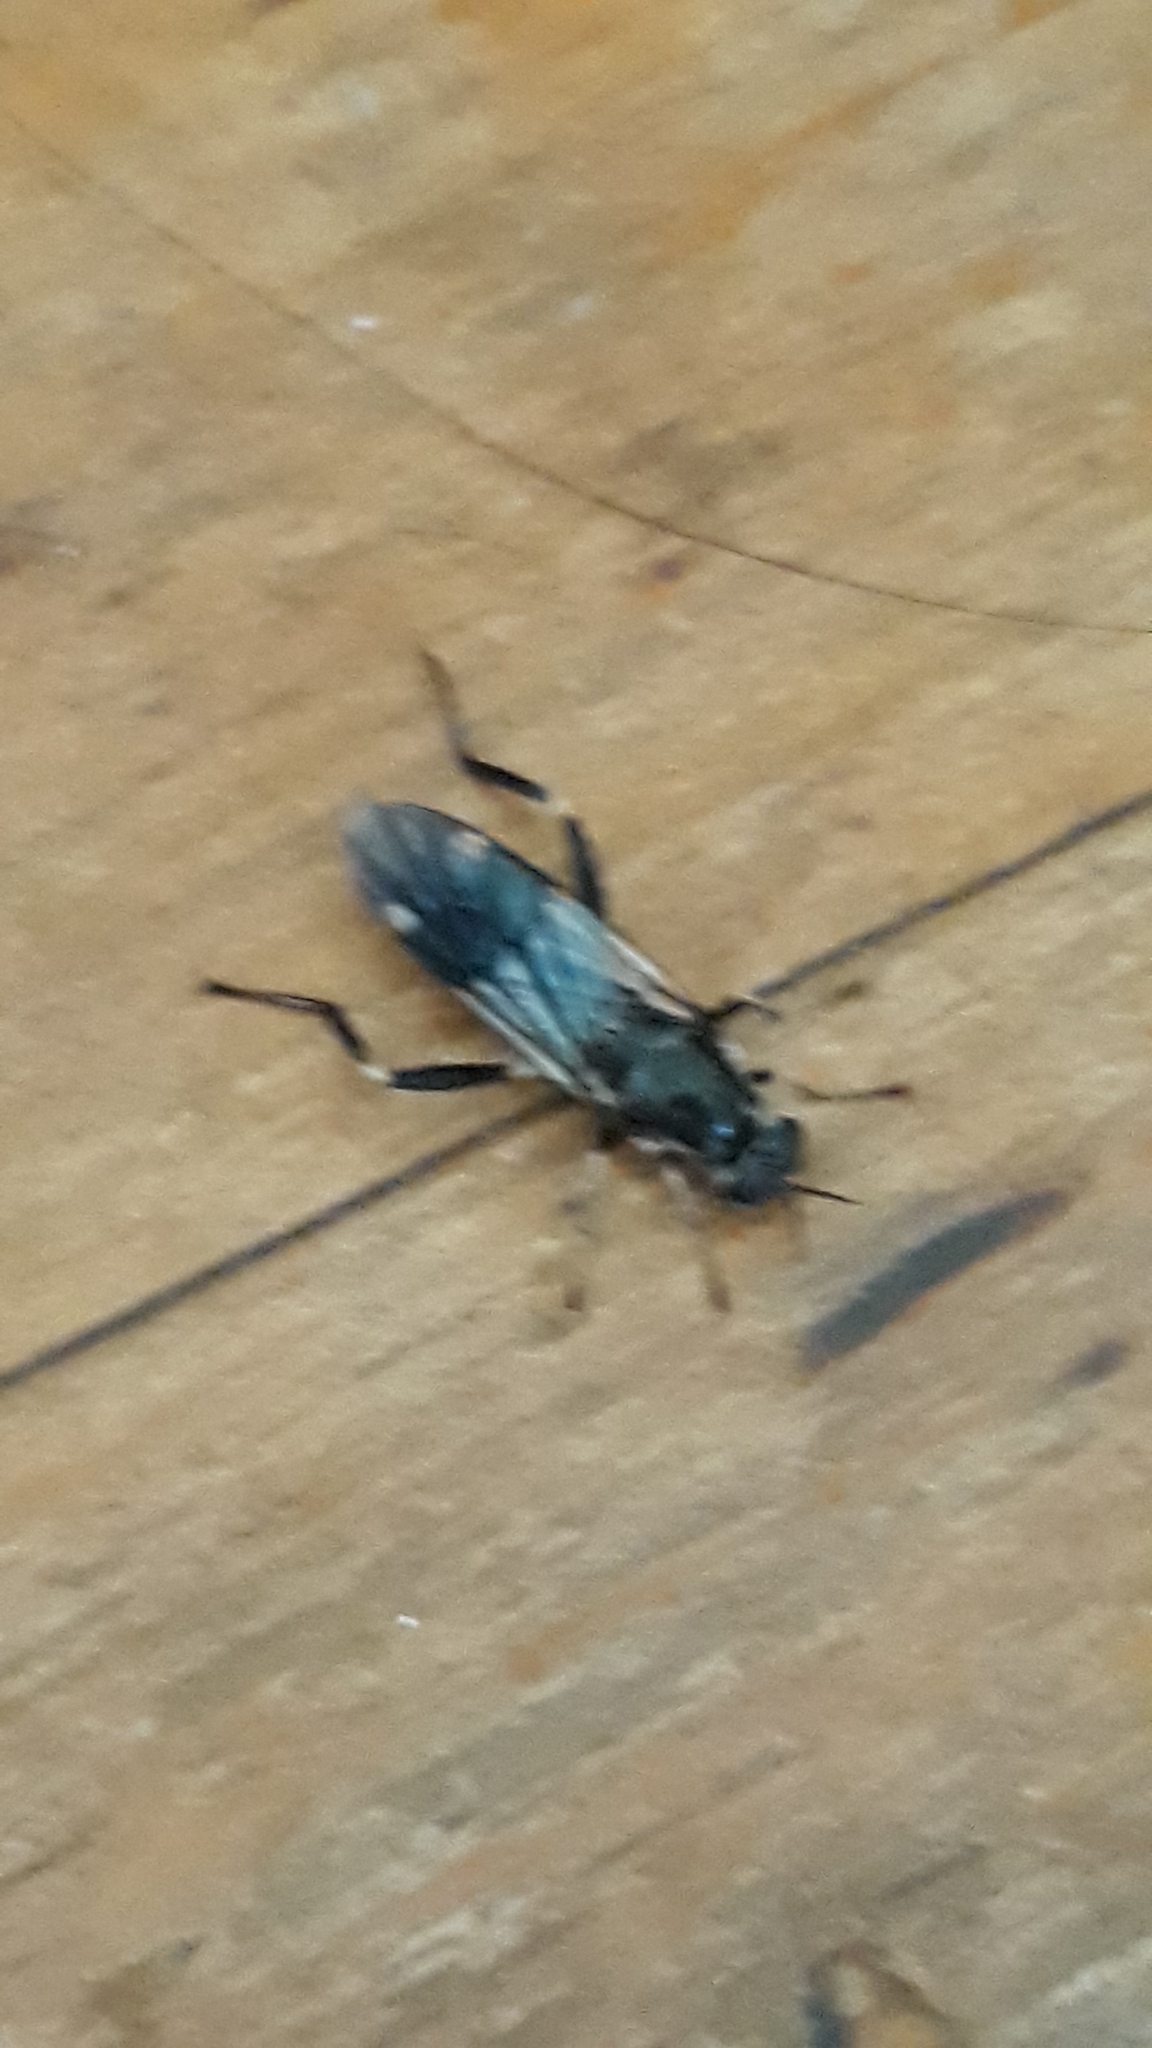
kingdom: Animalia
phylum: Arthropoda
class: Insecta
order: Diptera
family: Stratiomyidae
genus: Exaireta
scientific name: Exaireta spinigera
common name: Blue soldier fly
